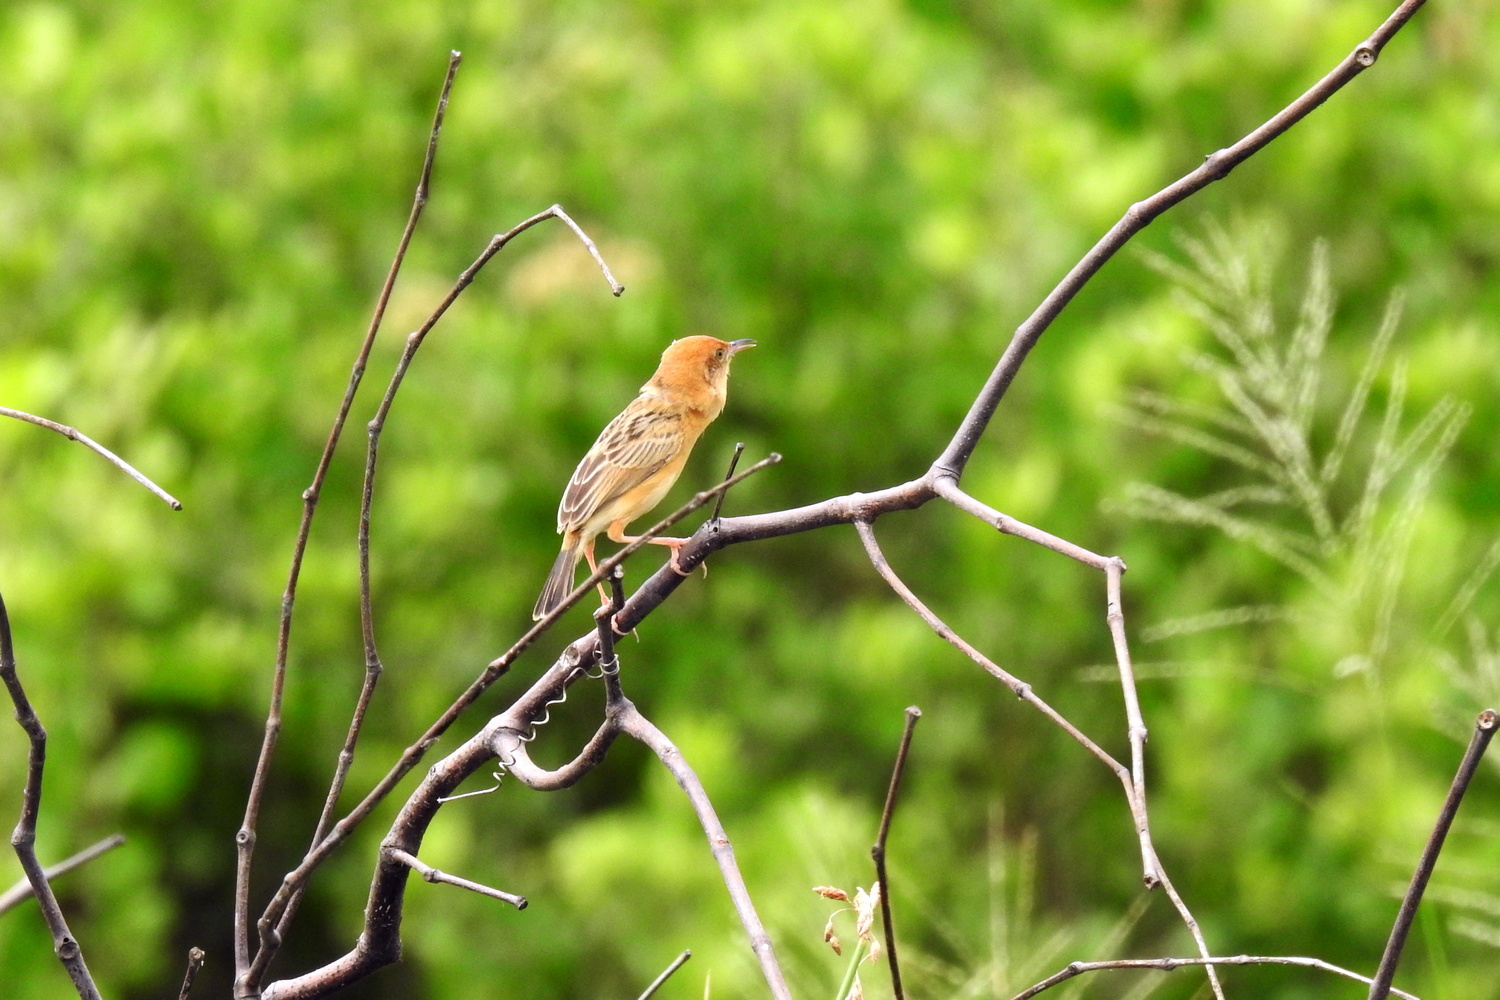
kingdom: Animalia
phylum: Chordata
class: Aves
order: Passeriformes
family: Cisticolidae
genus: Cisticola
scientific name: Cisticola exilis
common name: Golden-headed cisticola
